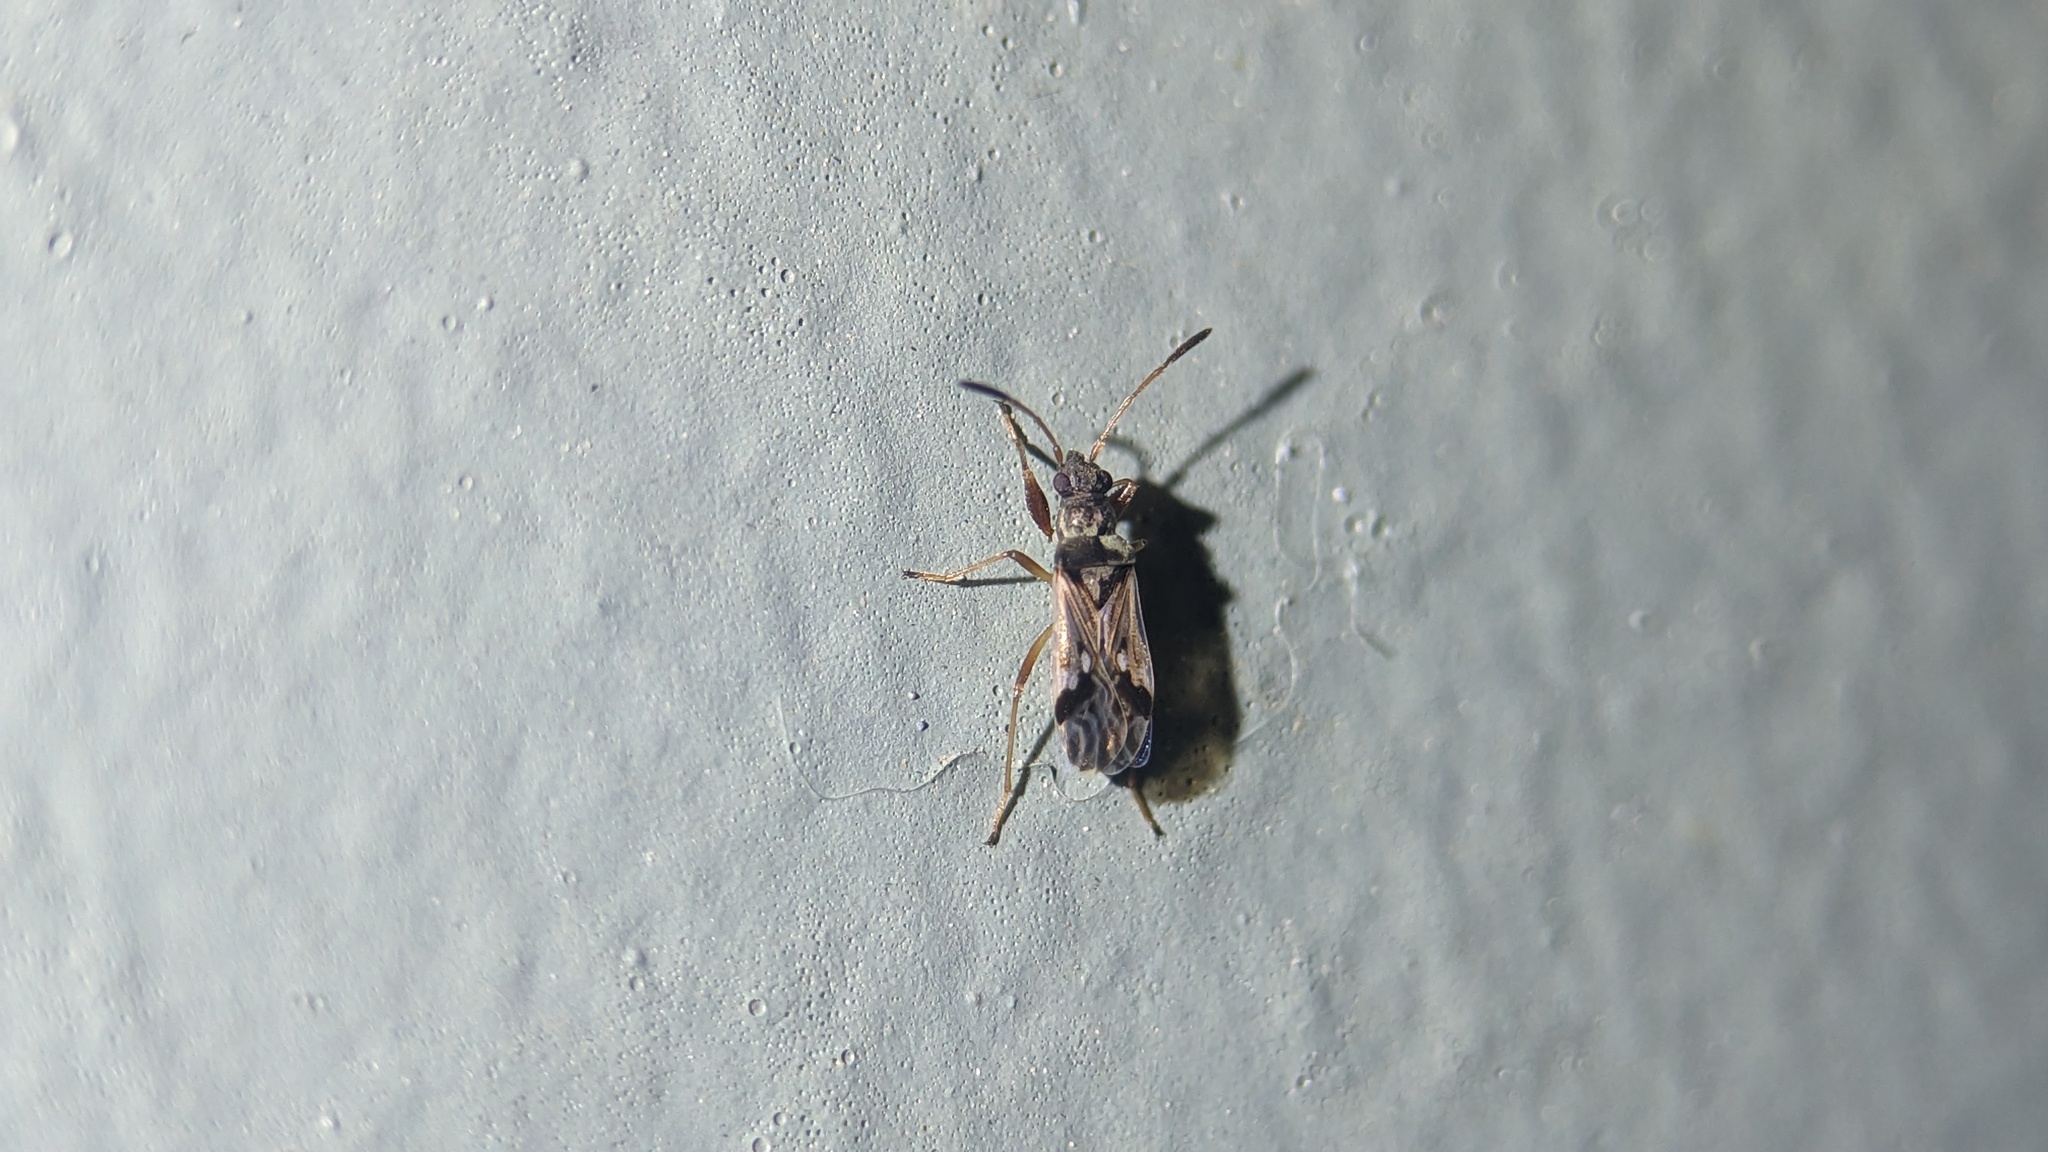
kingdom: Animalia
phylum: Arthropoda
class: Insecta
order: Hemiptera
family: Rhyparochromidae
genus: Pseudopachybrachius
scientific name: Pseudopachybrachius vinctus
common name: Dirt-colored seed bug
